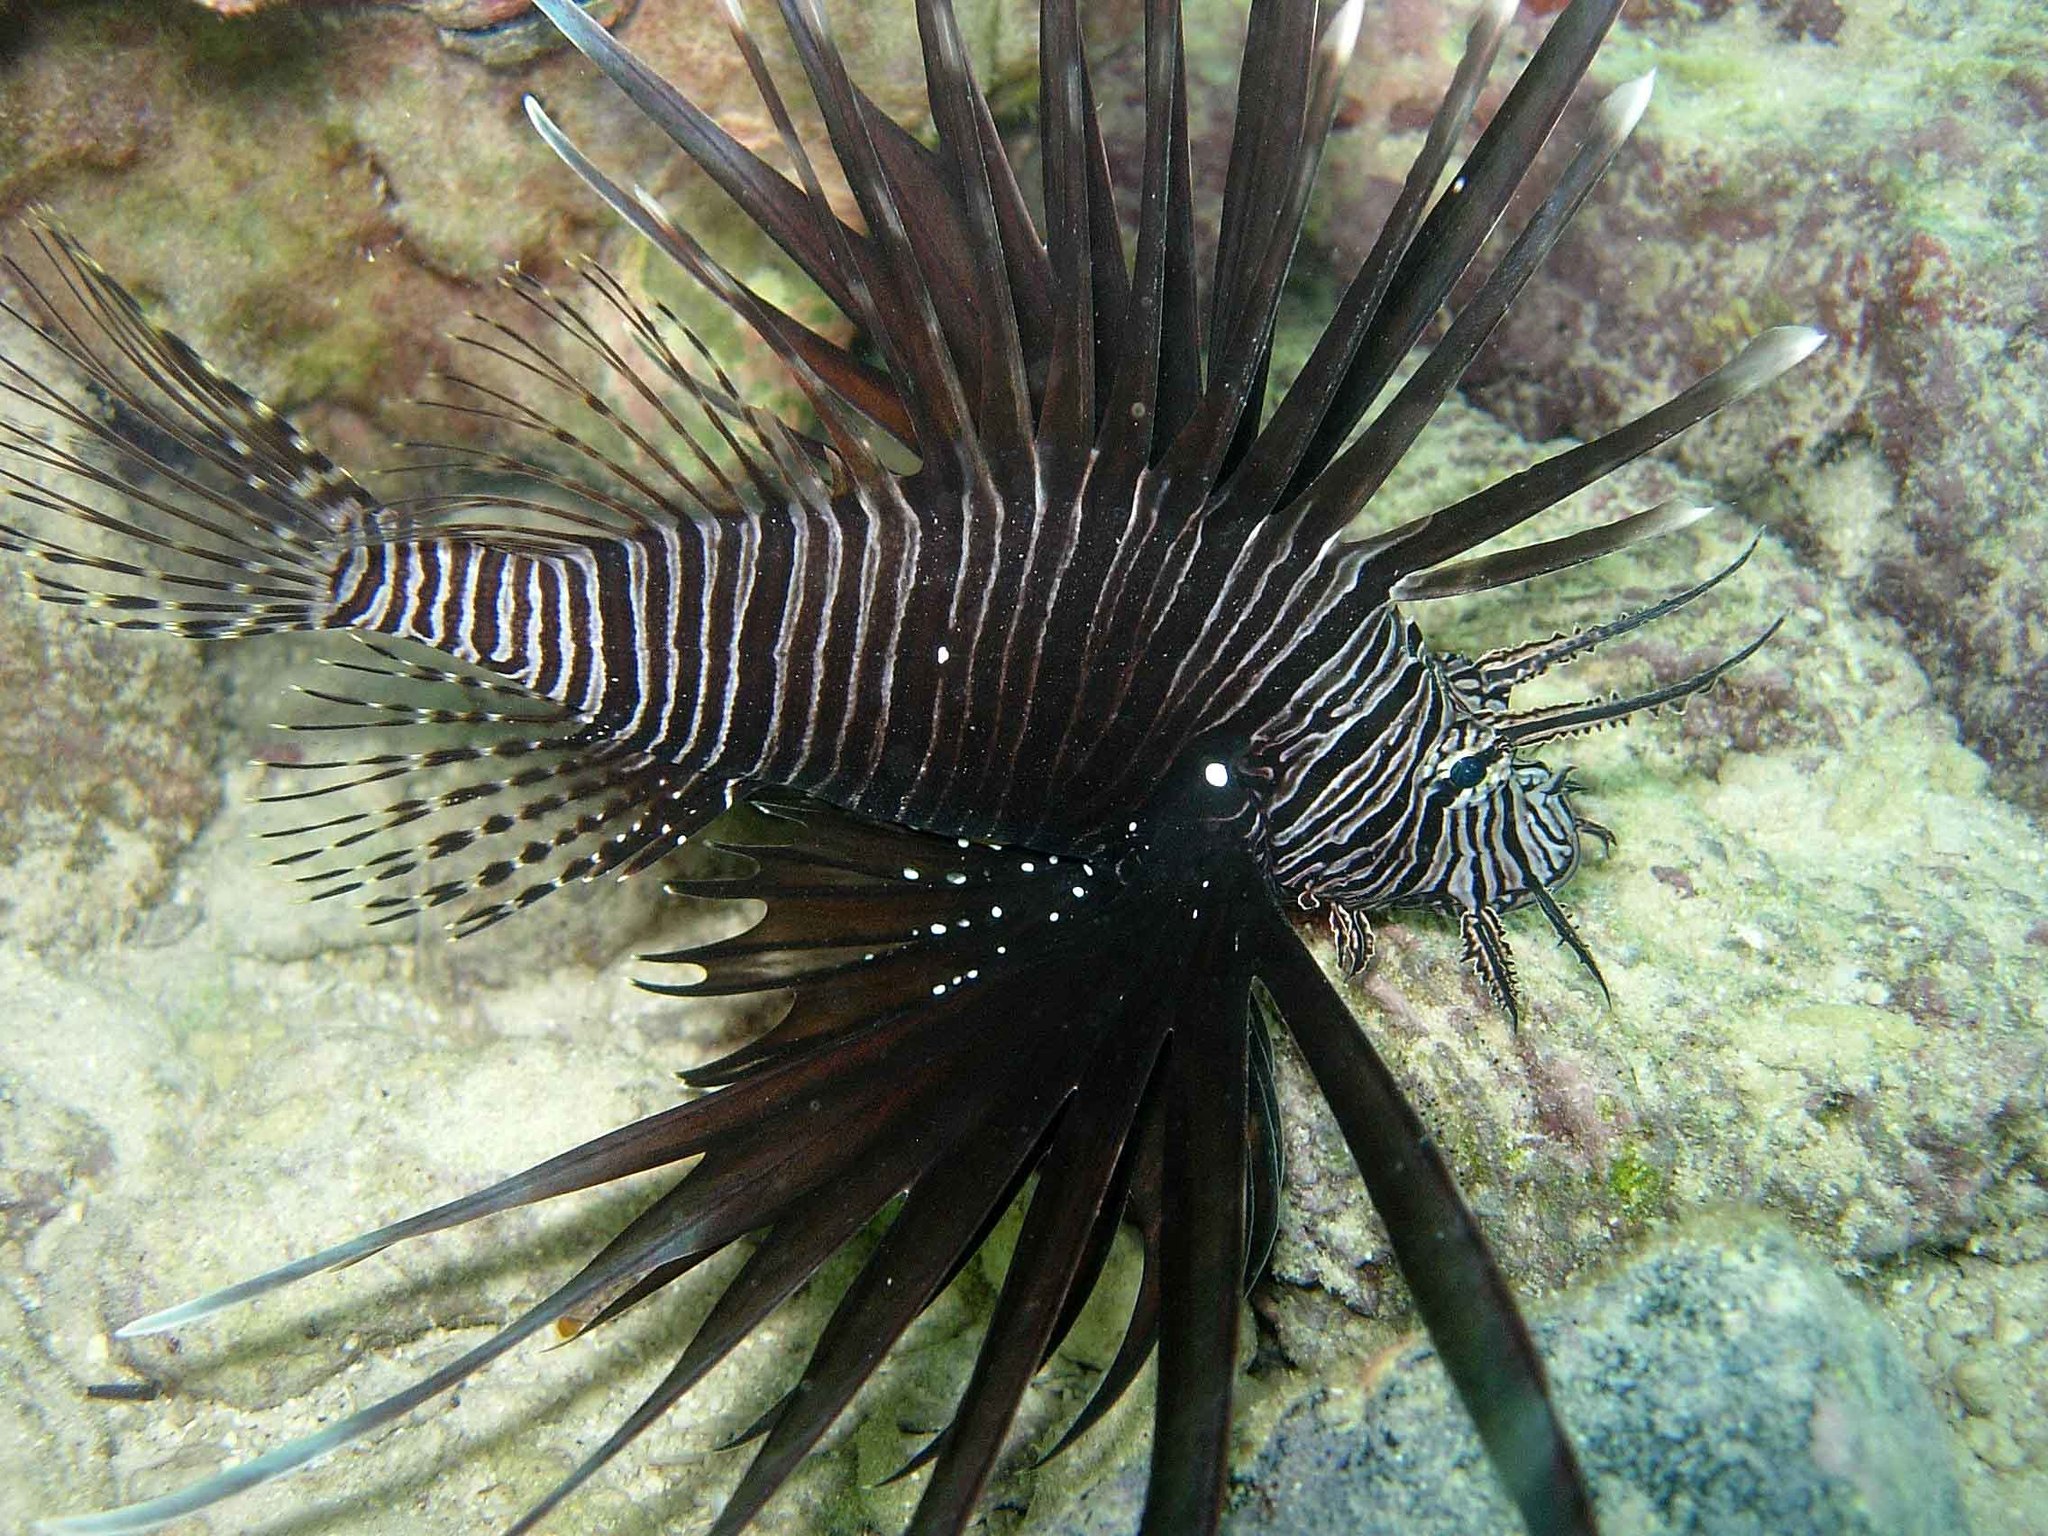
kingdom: Animalia
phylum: Chordata
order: Scorpaeniformes
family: Scorpaenidae
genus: Pterois
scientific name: Pterois volitans
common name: Lionfish
